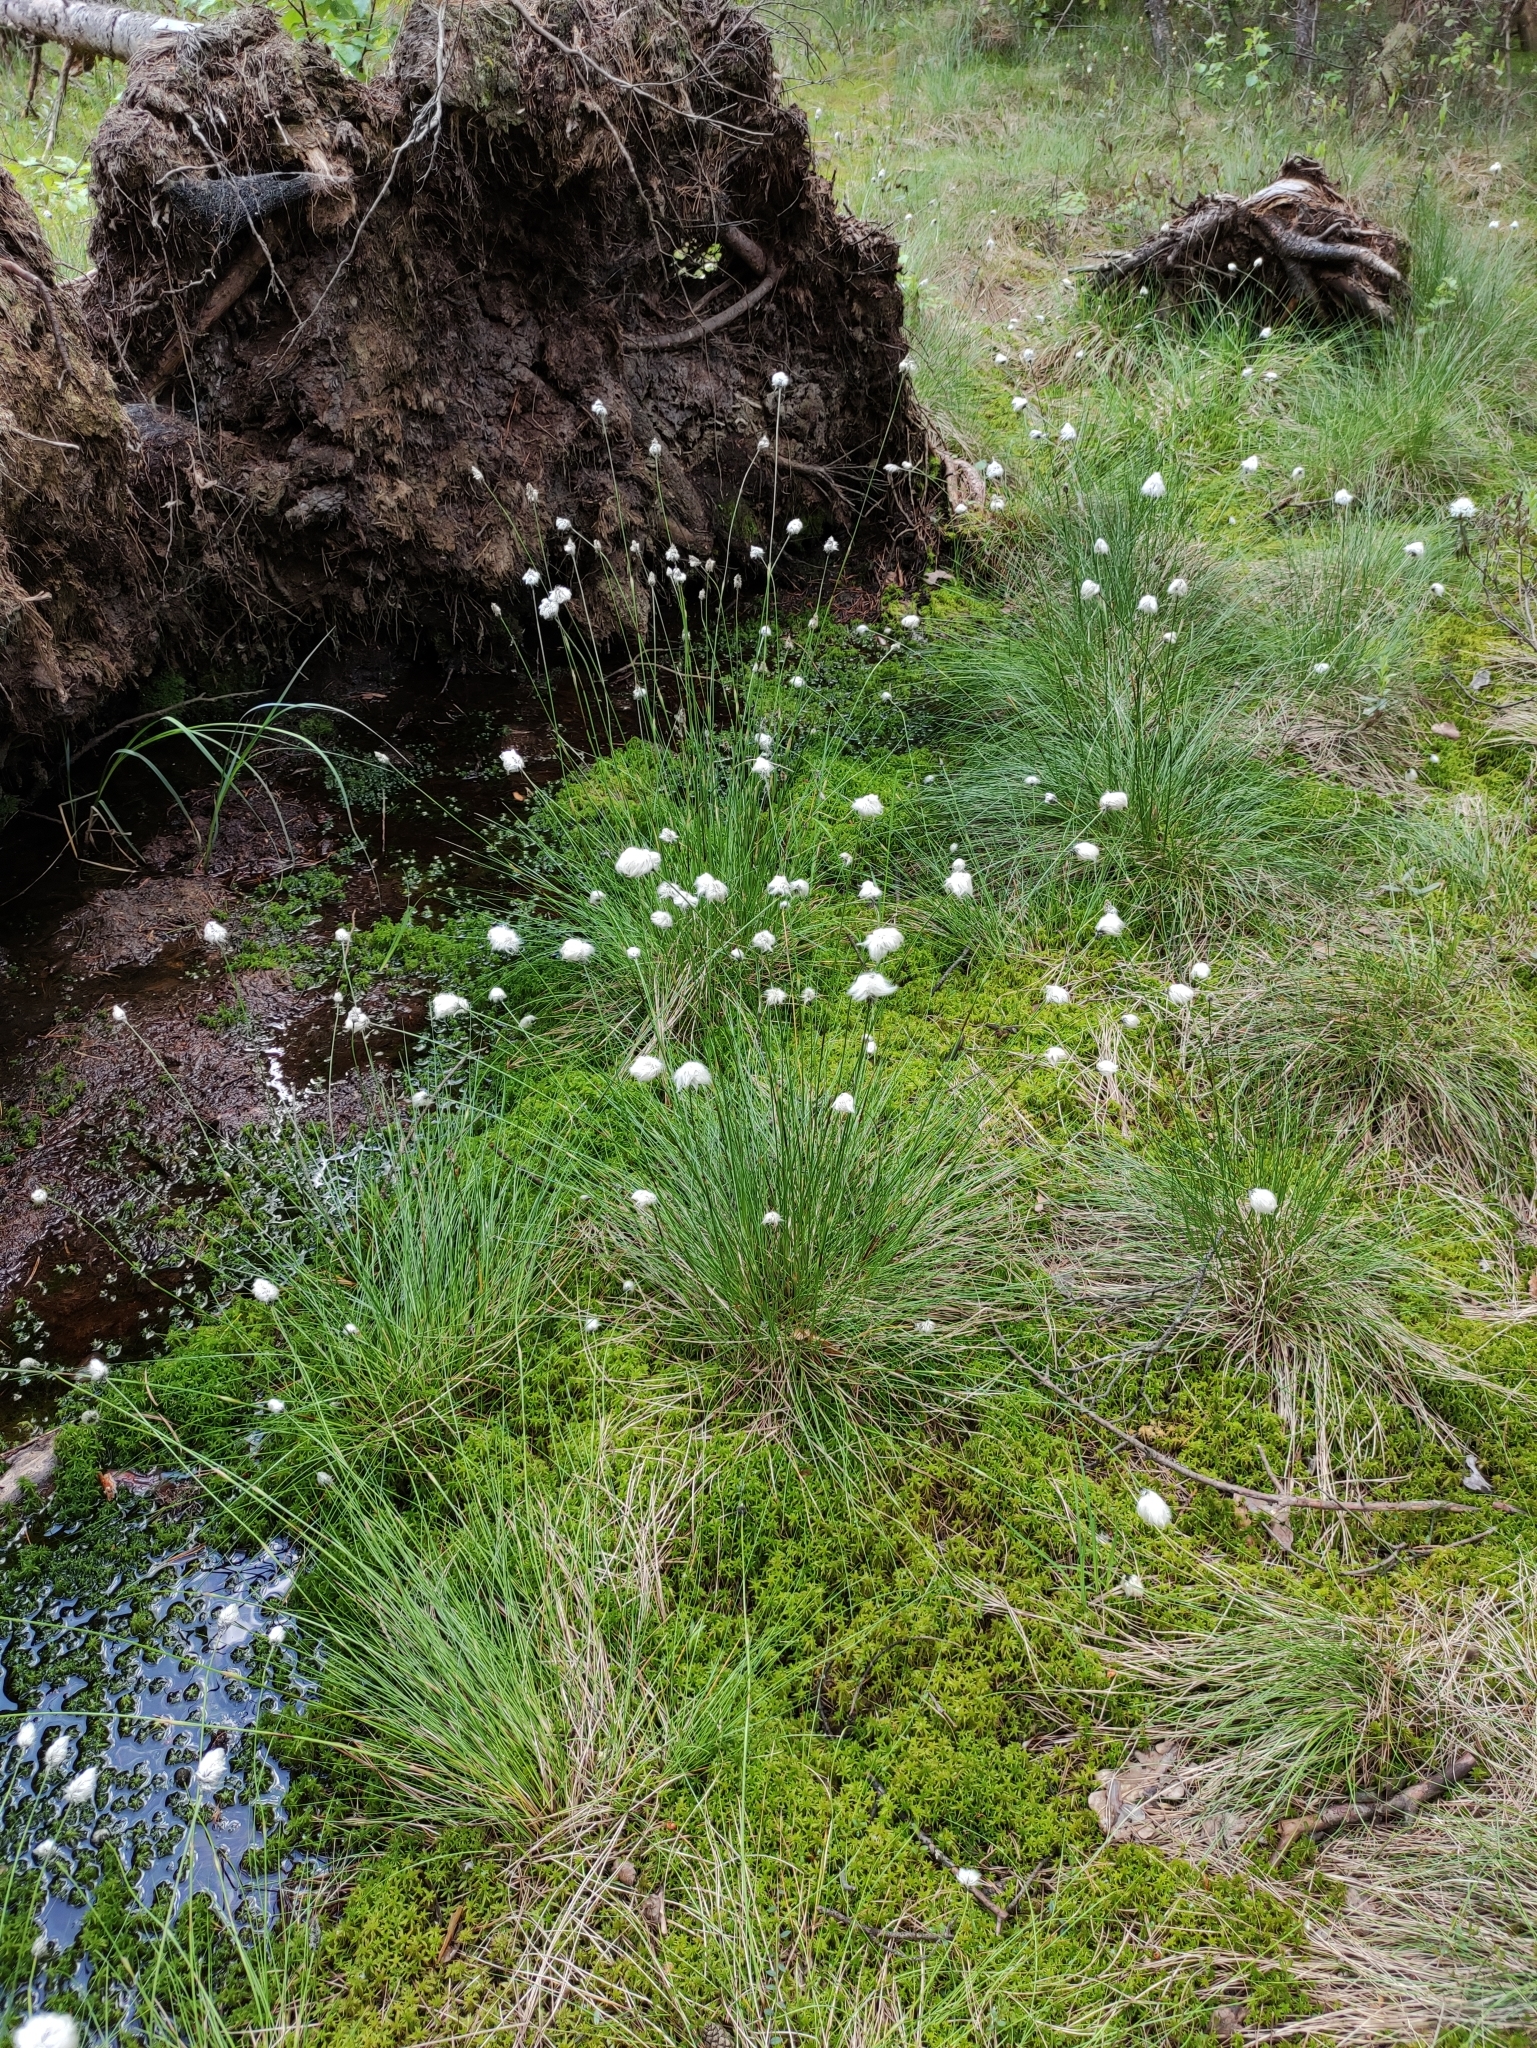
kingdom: Plantae
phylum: Tracheophyta
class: Liliopsida
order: Poales
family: Cyperaceae
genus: Eriophorum
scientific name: Eriophorum vaginatum
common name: Hare's-tail cottongrass
